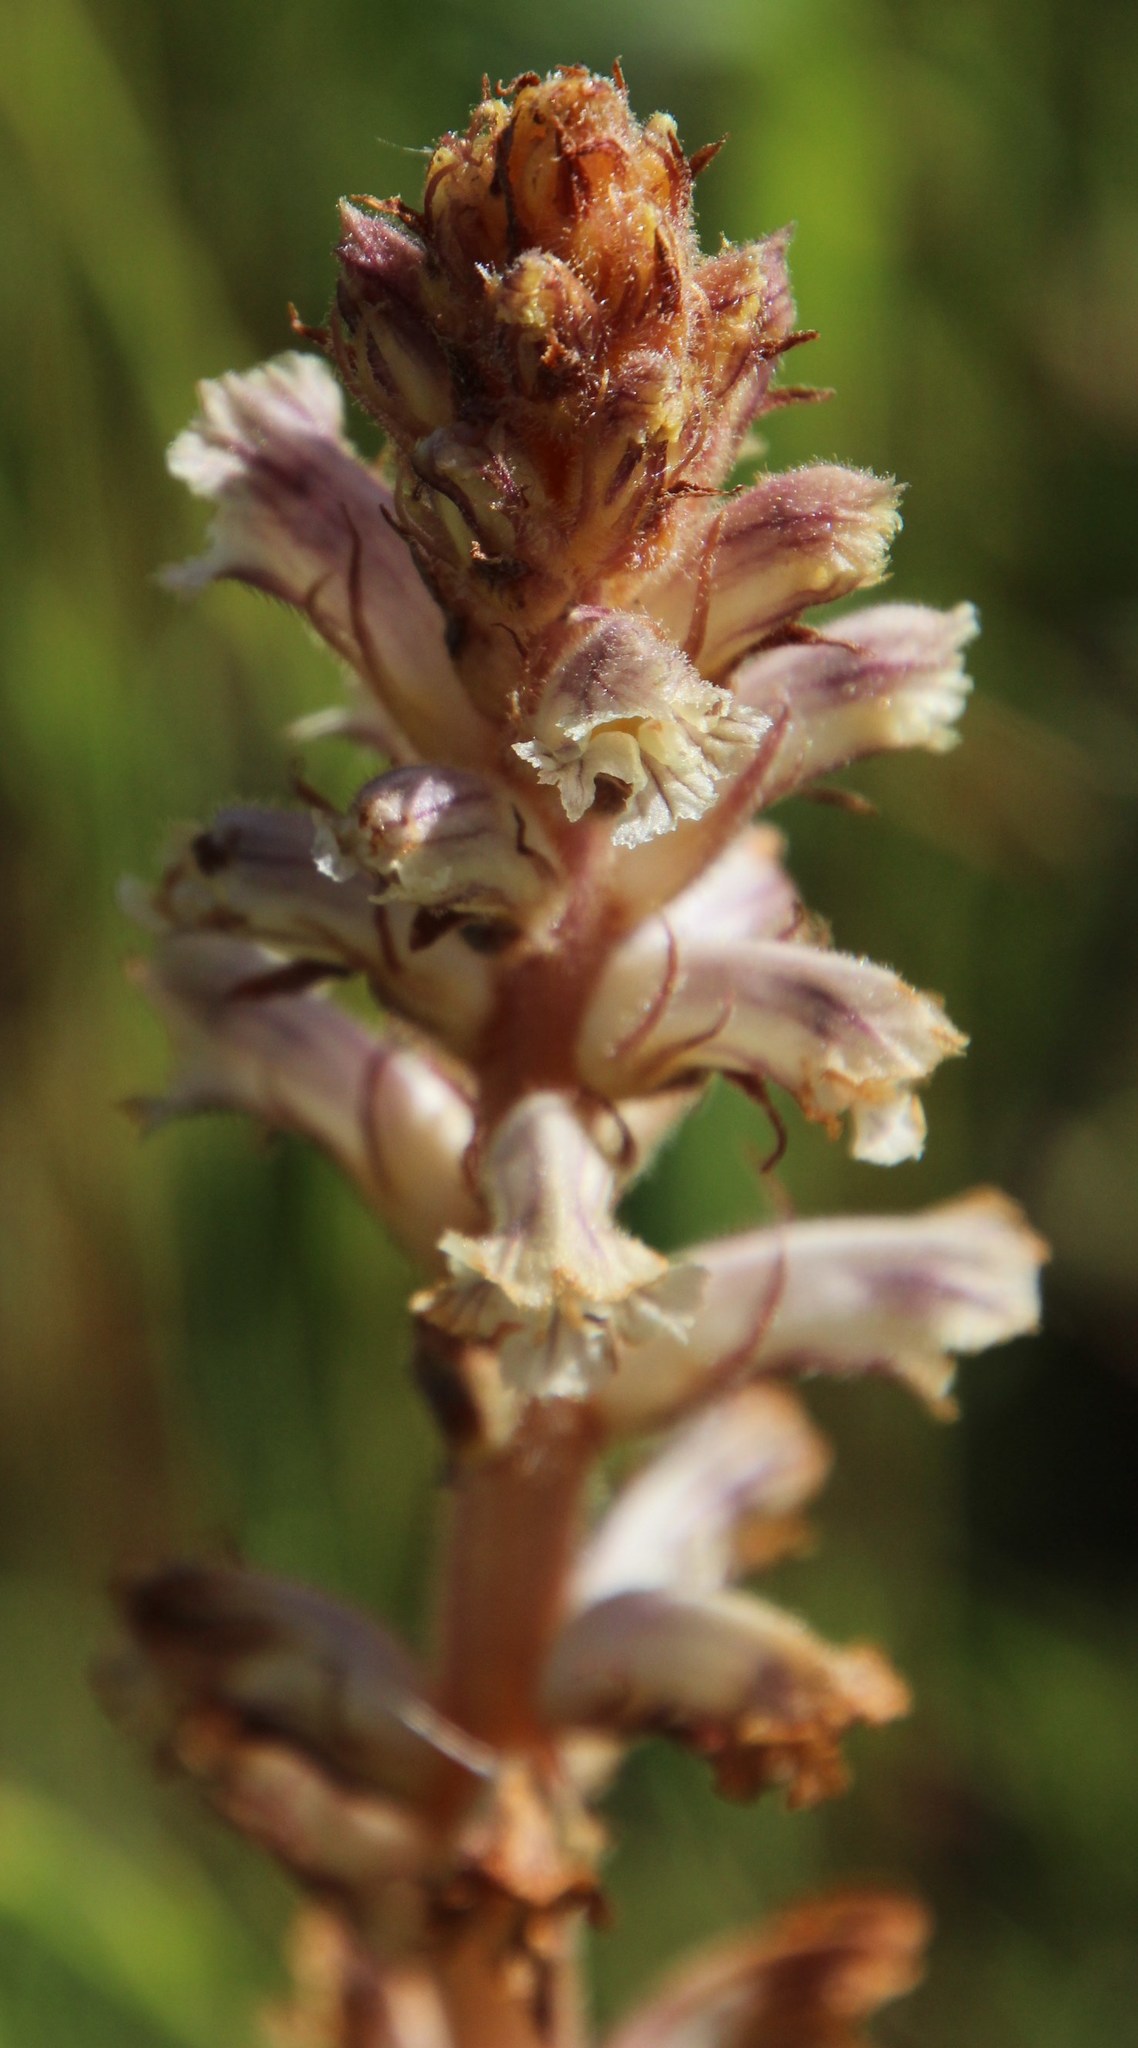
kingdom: Plantae
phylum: Tracheophyta
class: Magnoliopsida
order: Lamiales
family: Orobanchaceae
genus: Orobanche
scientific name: Orobanche minor
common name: Common broomrape
